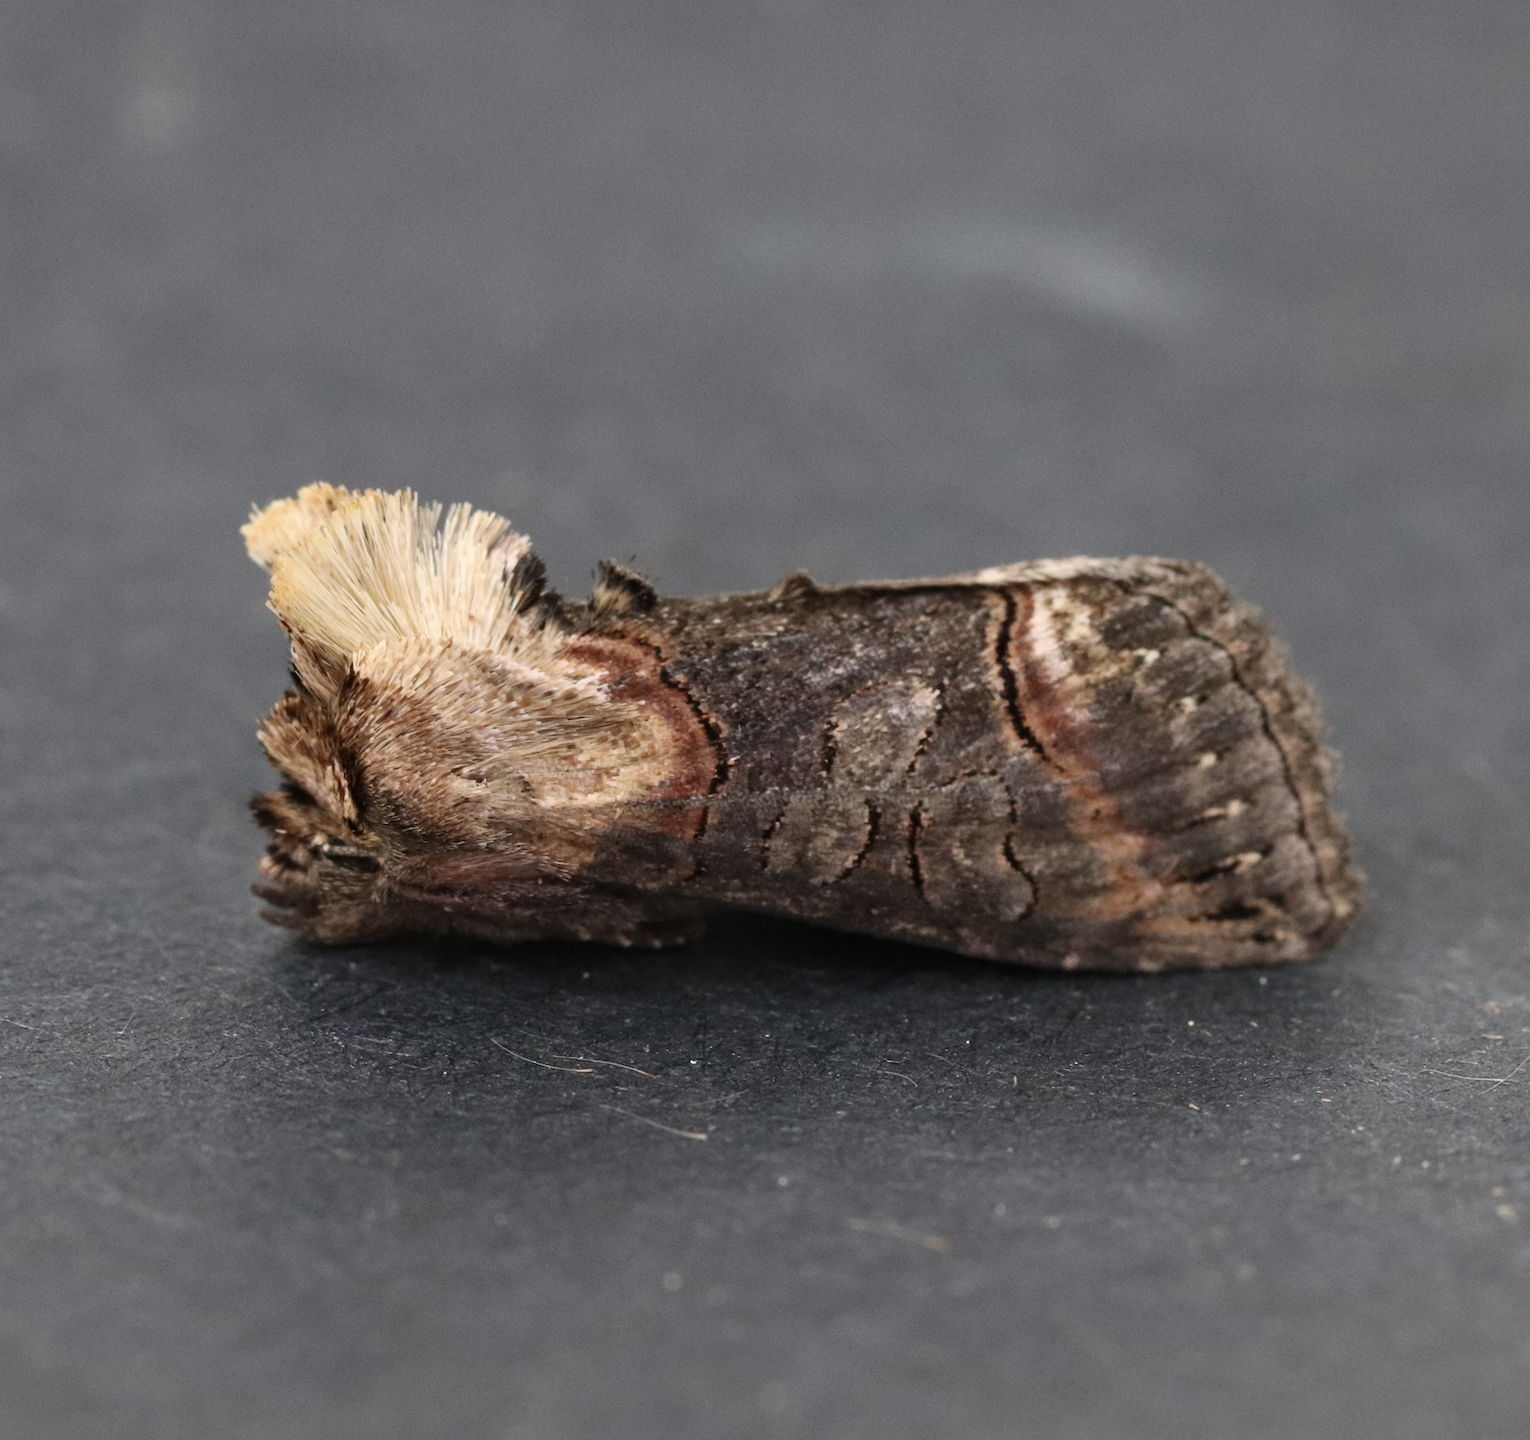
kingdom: Animalia
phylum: Arthropoda
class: Insecta
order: Lepidoptera
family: Noctuidae
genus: Abrostola
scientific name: Abrostola triplasia
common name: Dark spectacle
